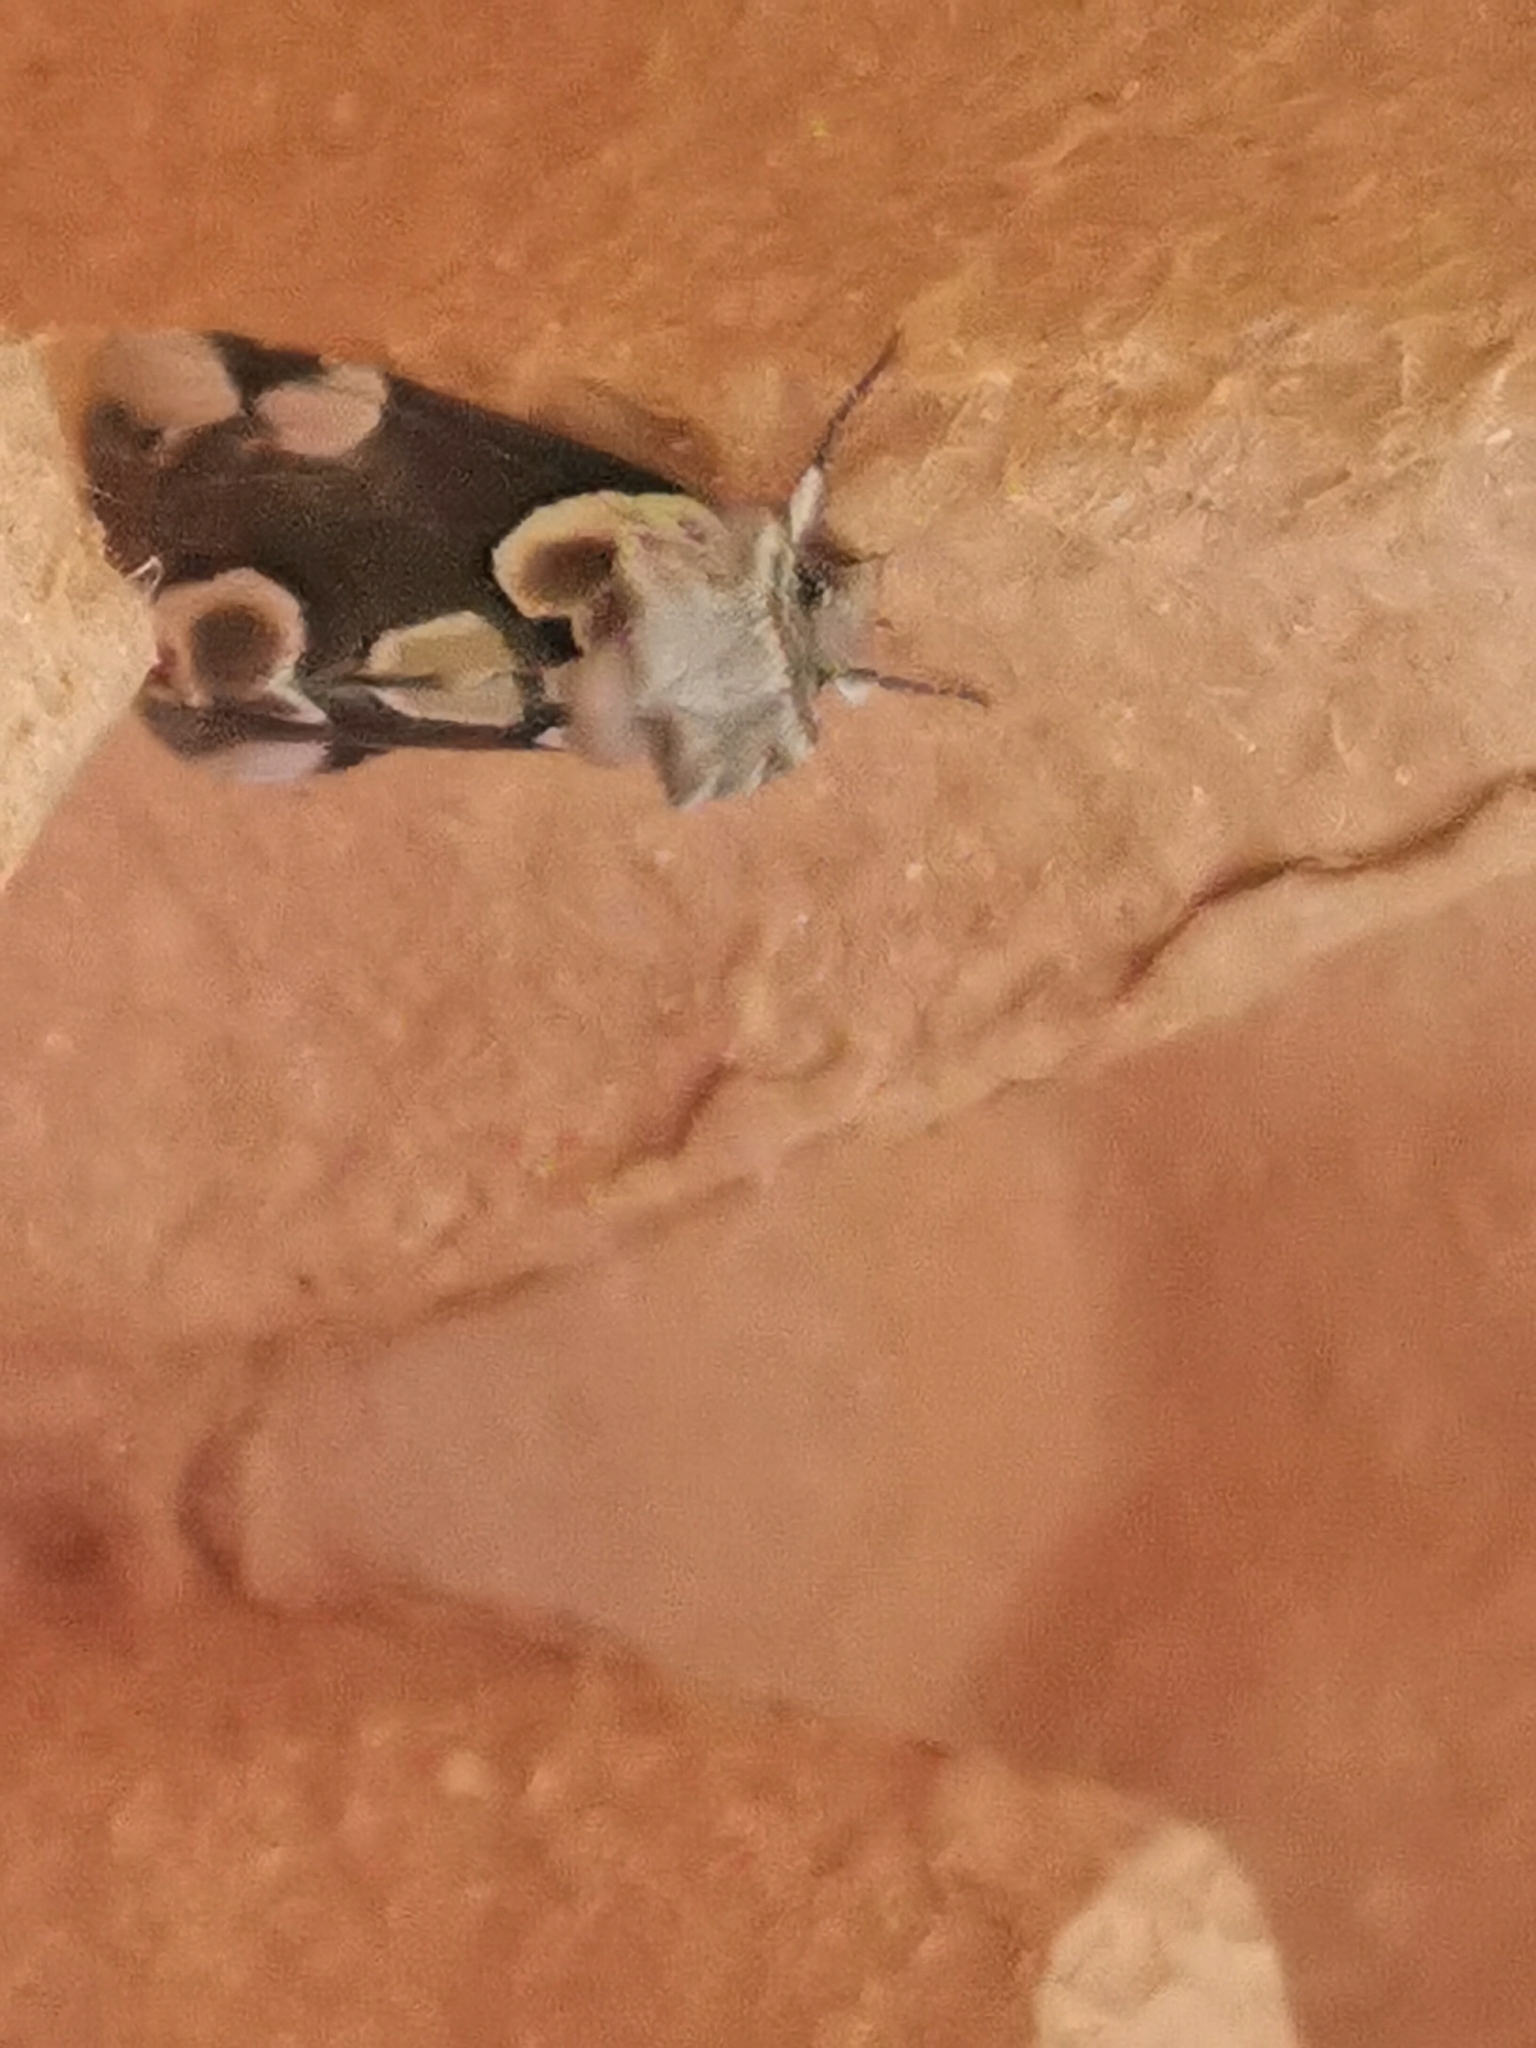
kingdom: Animalia
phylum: Arthropoda
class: Insecta
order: Lepidoptera
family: Drepanidae
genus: Thyatira
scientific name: Thyatira batis
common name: Peach blossom
